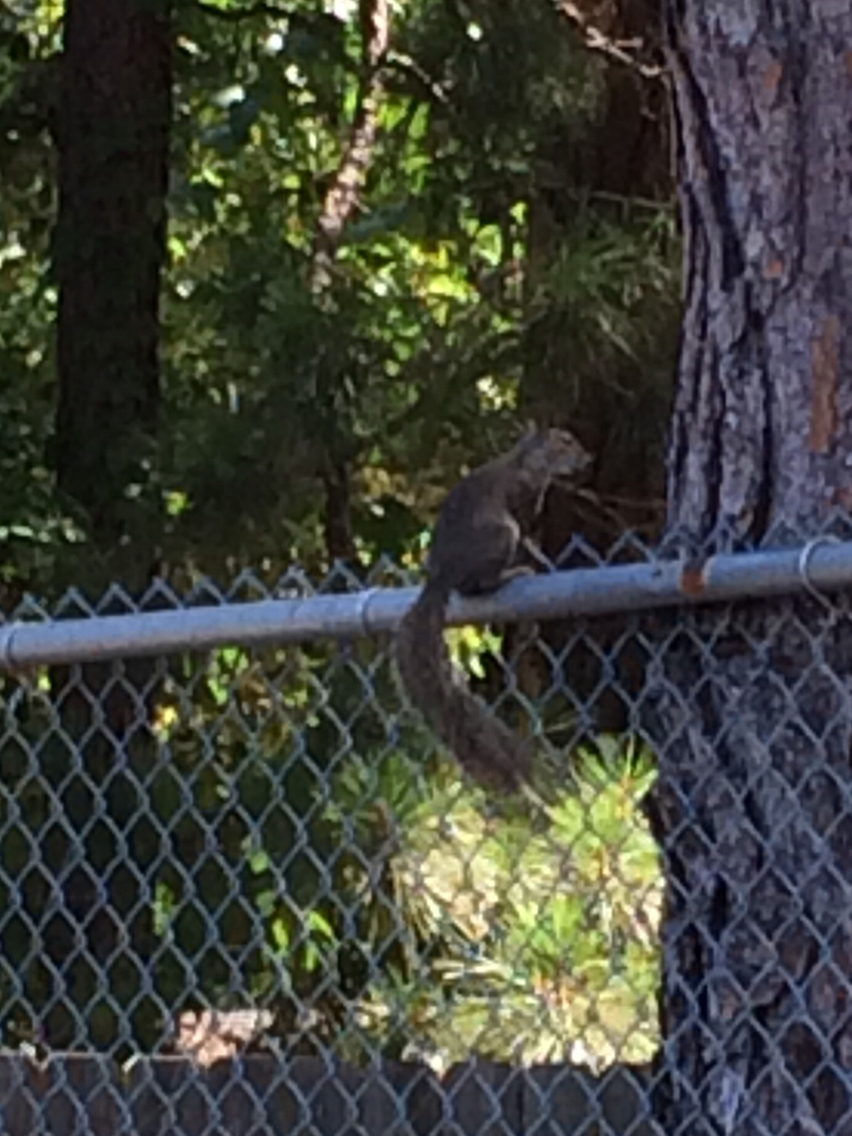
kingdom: Animalia
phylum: Chordata
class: Mammalia
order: Rodentia
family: Sciuridae
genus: Sciurus
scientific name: Sciurus carolinensis
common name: Eastern gray squirrel
